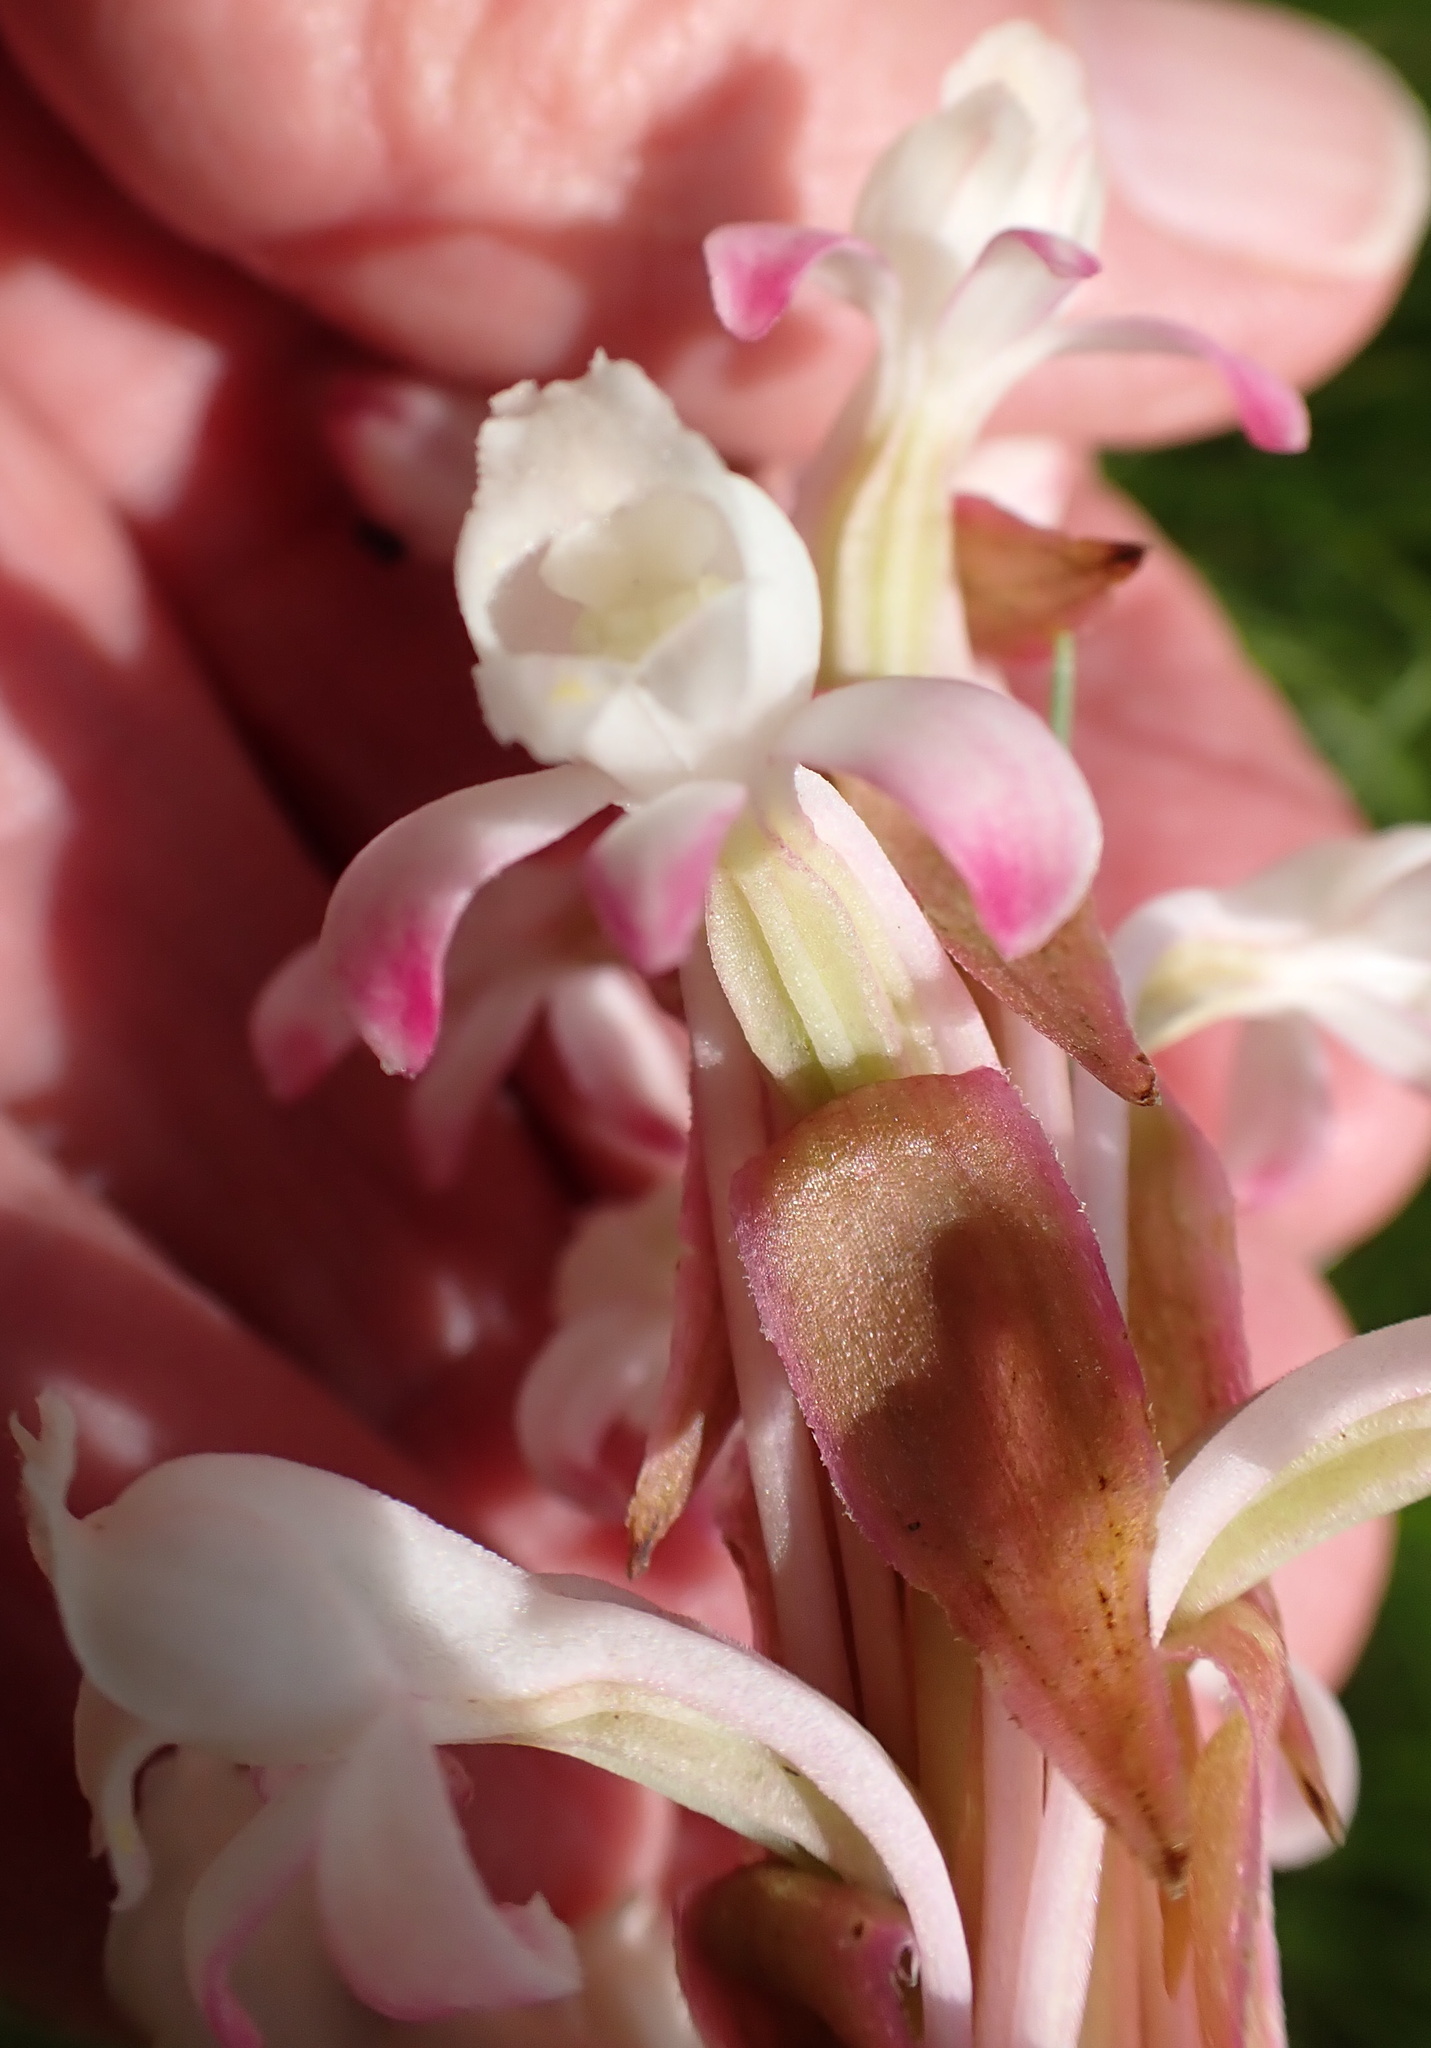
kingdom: Plantae
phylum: Tracheophyta
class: Liliopsida
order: Asparagales
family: Orchidaceae
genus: Satyrium
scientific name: Satyrium longicauda
